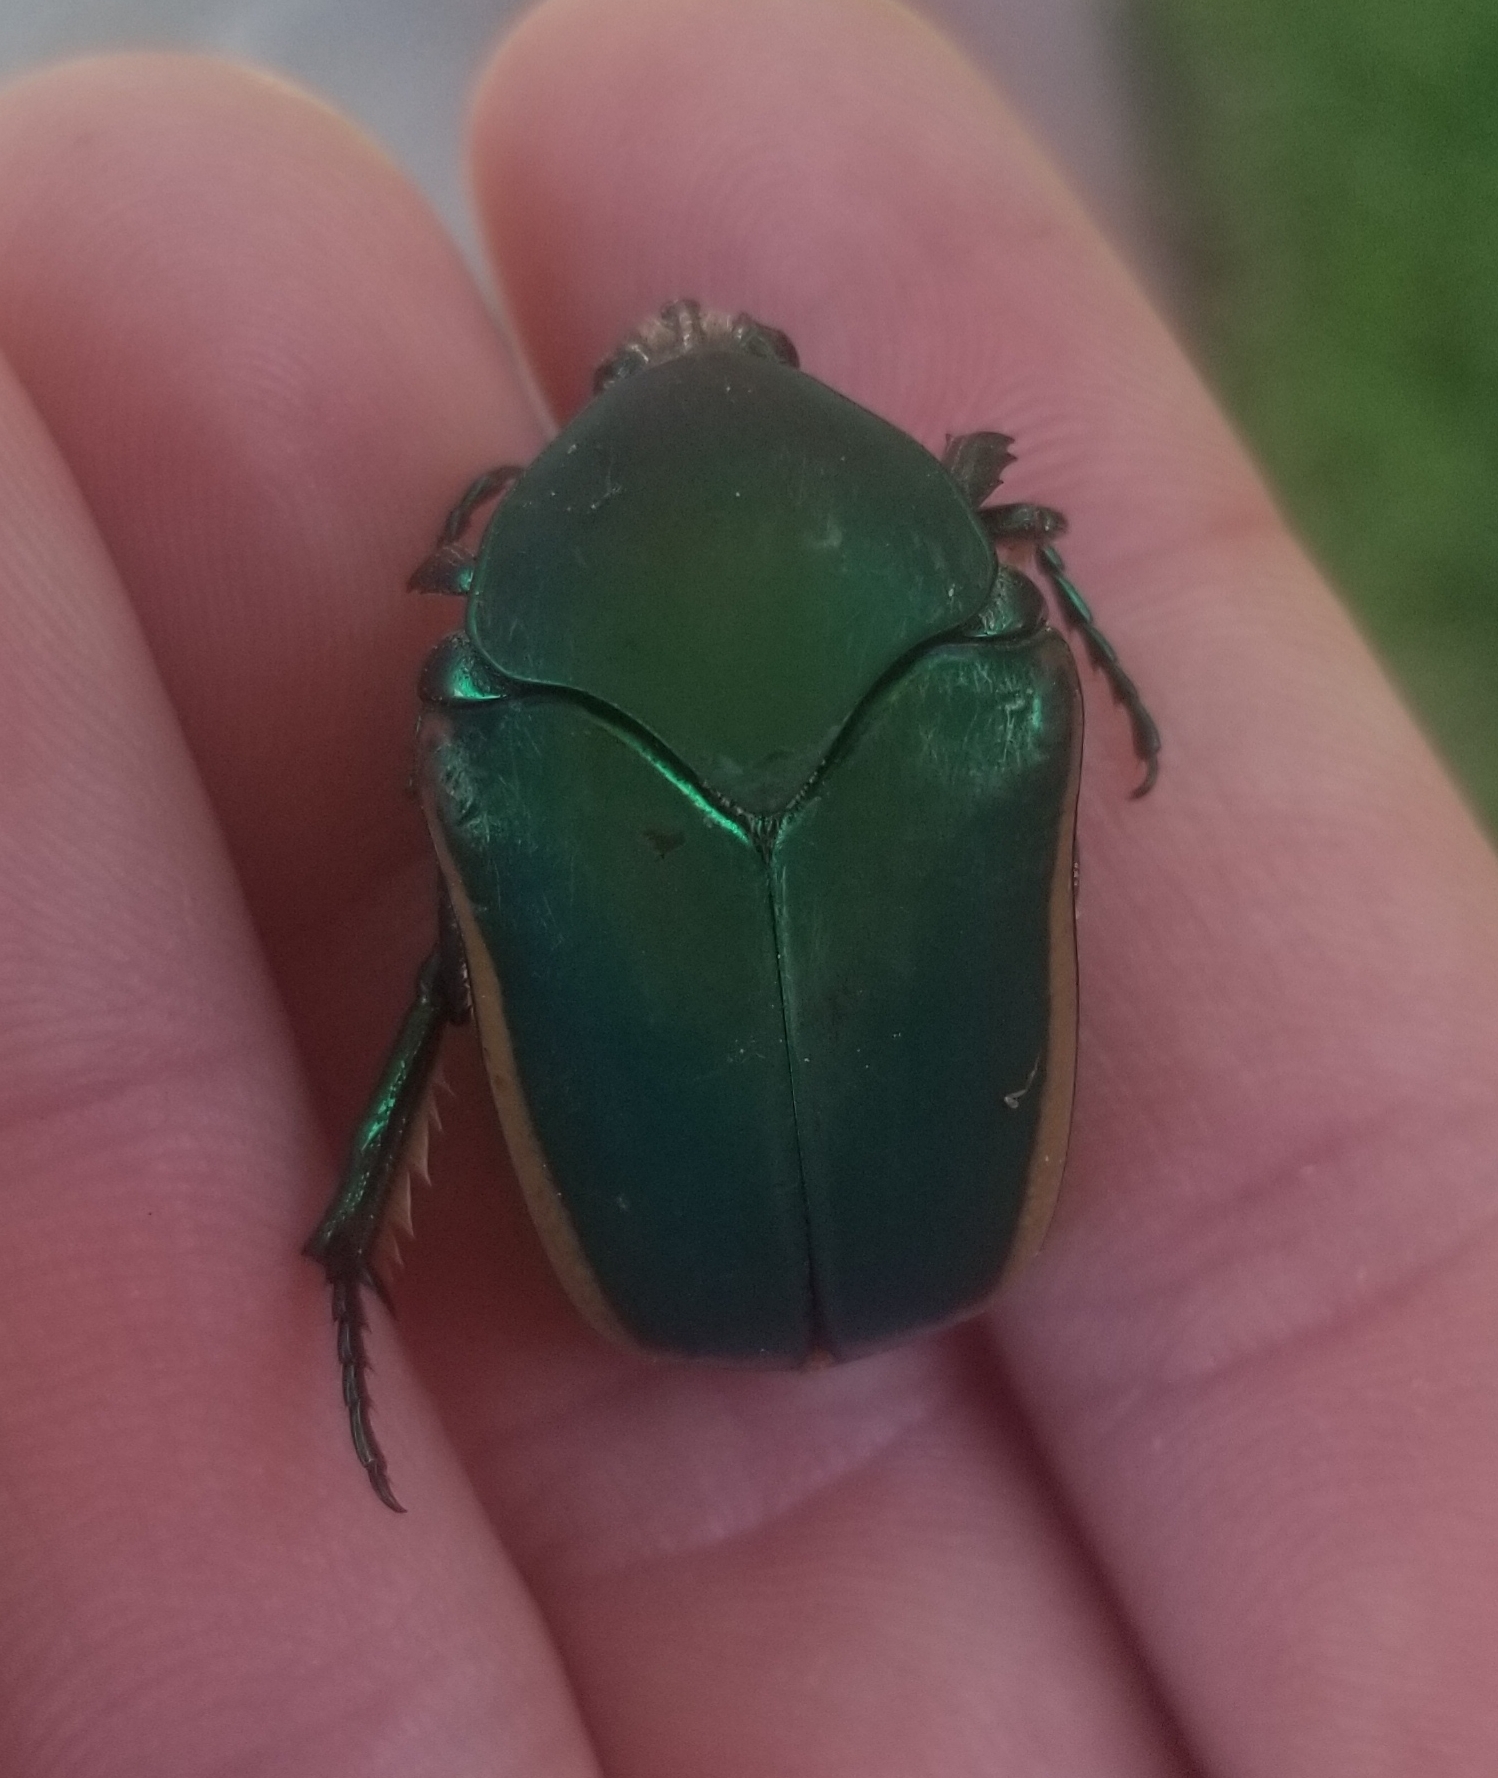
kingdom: Animalia
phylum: Arthropoda
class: Insecta
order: Coleoptera
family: Scarabaeidae
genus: Cotinis
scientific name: Cotinis mutabilis
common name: Figeater beetle
